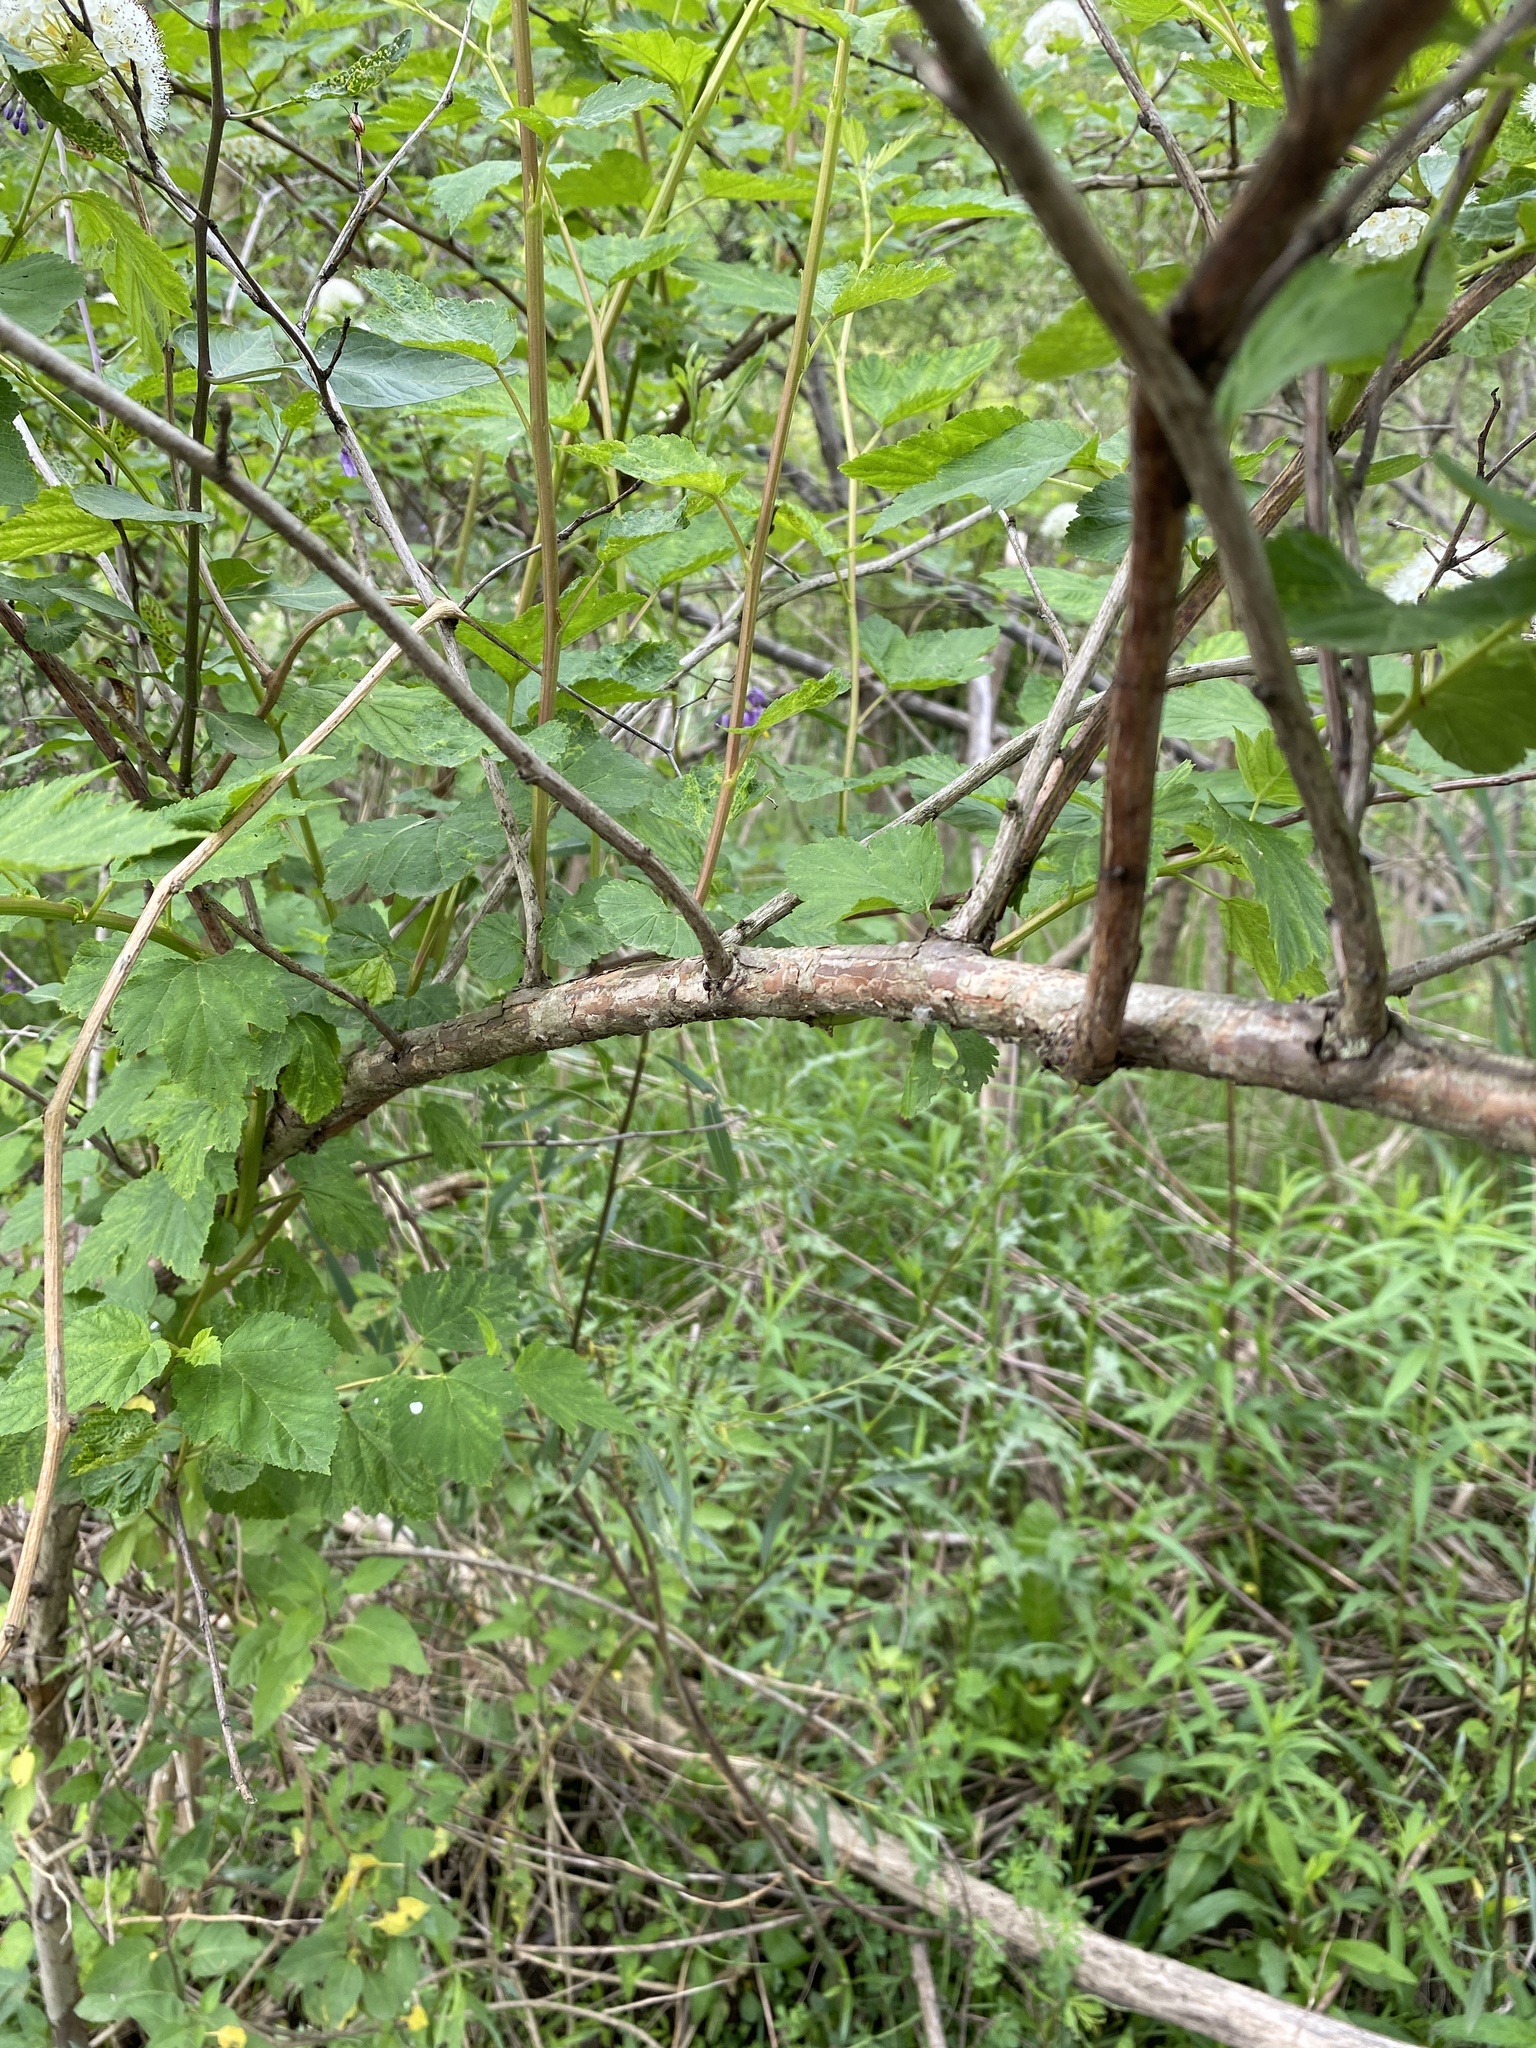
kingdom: Plantae
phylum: Tracheophyta
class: Magnoliopsida
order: Rosales
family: Rosaceae
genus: Physocarpus
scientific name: Physocarpus opulifolius
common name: Ninebark
